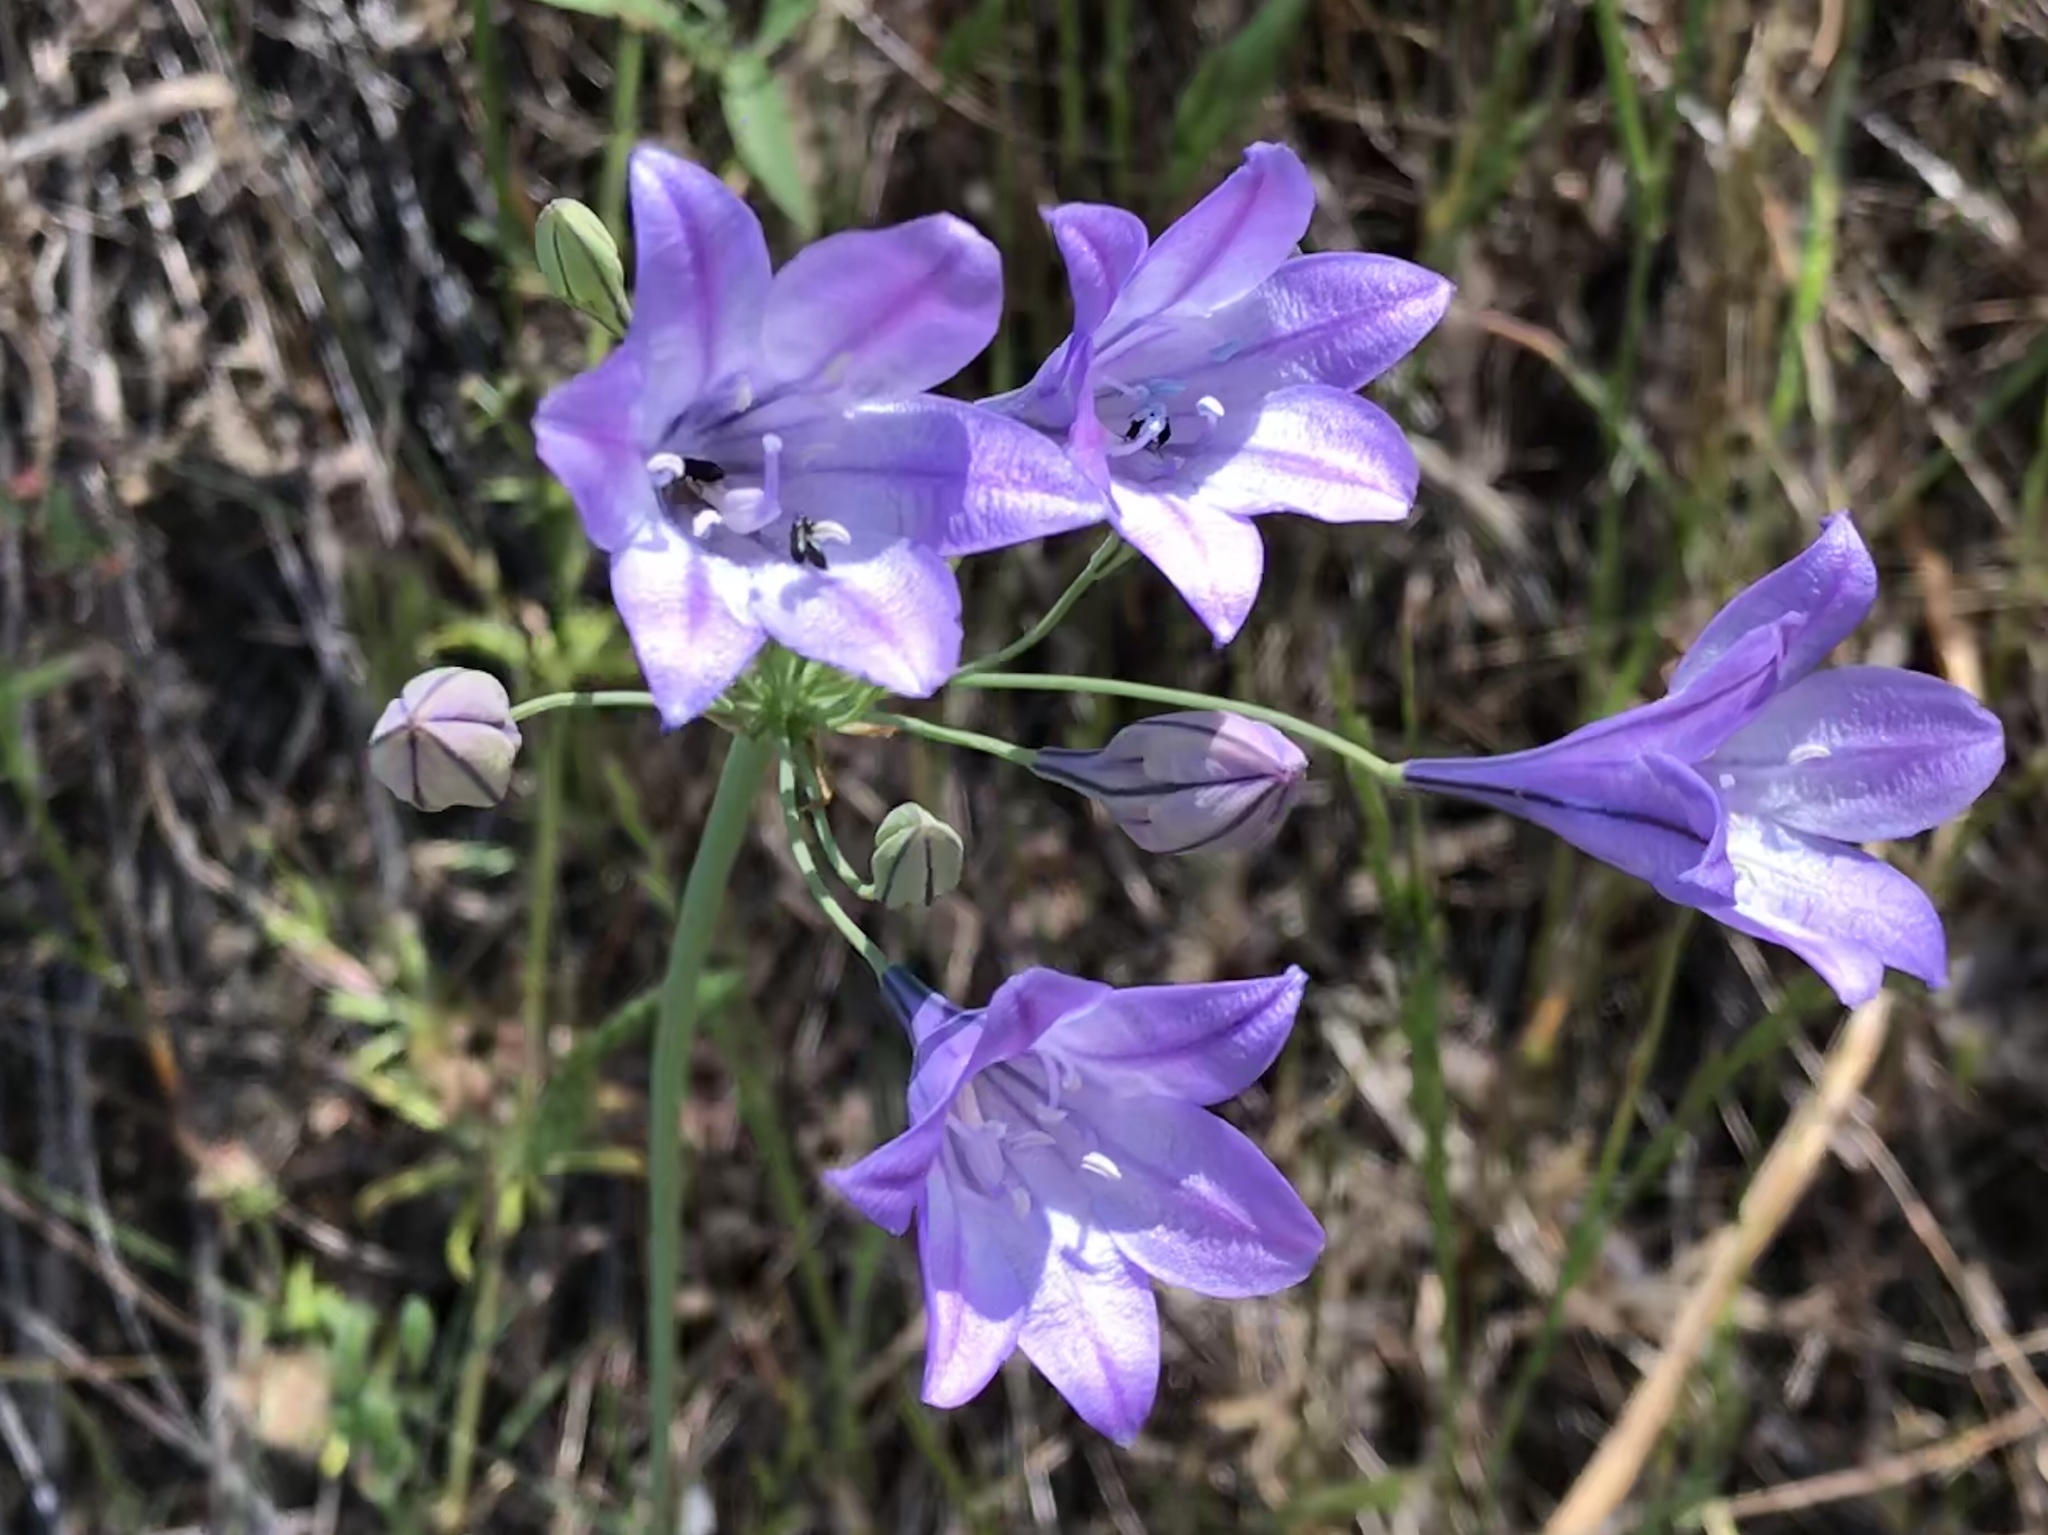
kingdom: Plantae
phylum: Tracheophyta
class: Liliopsida
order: Asparagales
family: Asparagaceae
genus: Triteleia
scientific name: Triteleia laxa
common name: Triplet-lily
